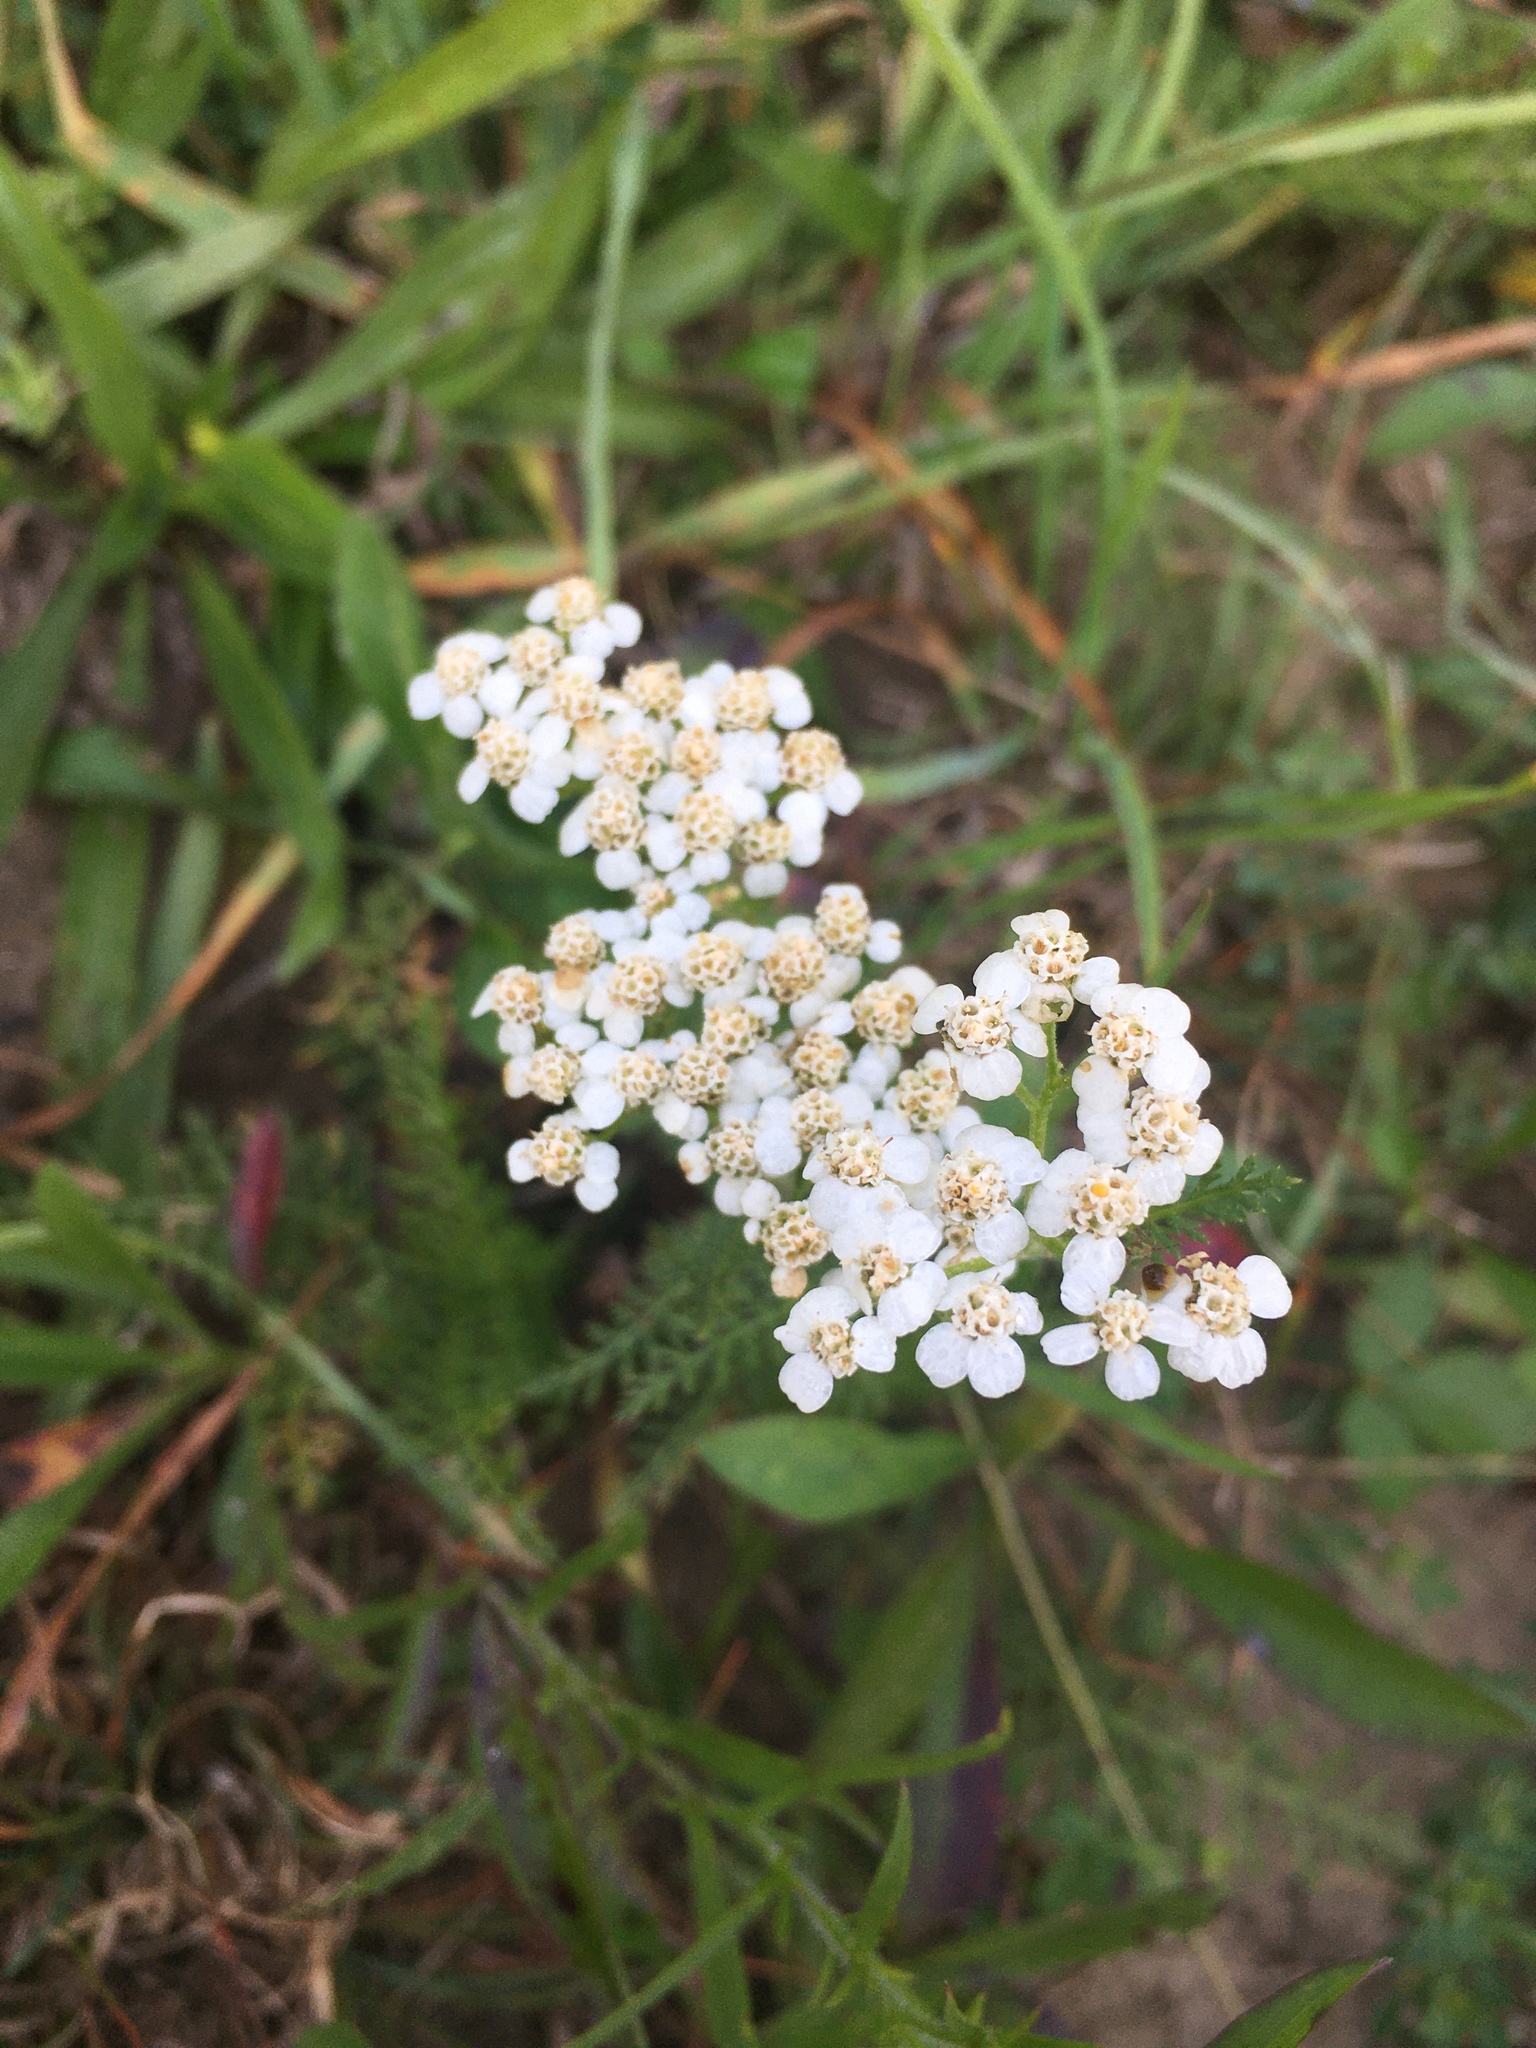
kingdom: Plantae
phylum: Tracheophyta
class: Magnoliopsida
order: Asterales
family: Asteraceae
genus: Achillea
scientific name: Achillea millefolium
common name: Yarrow
